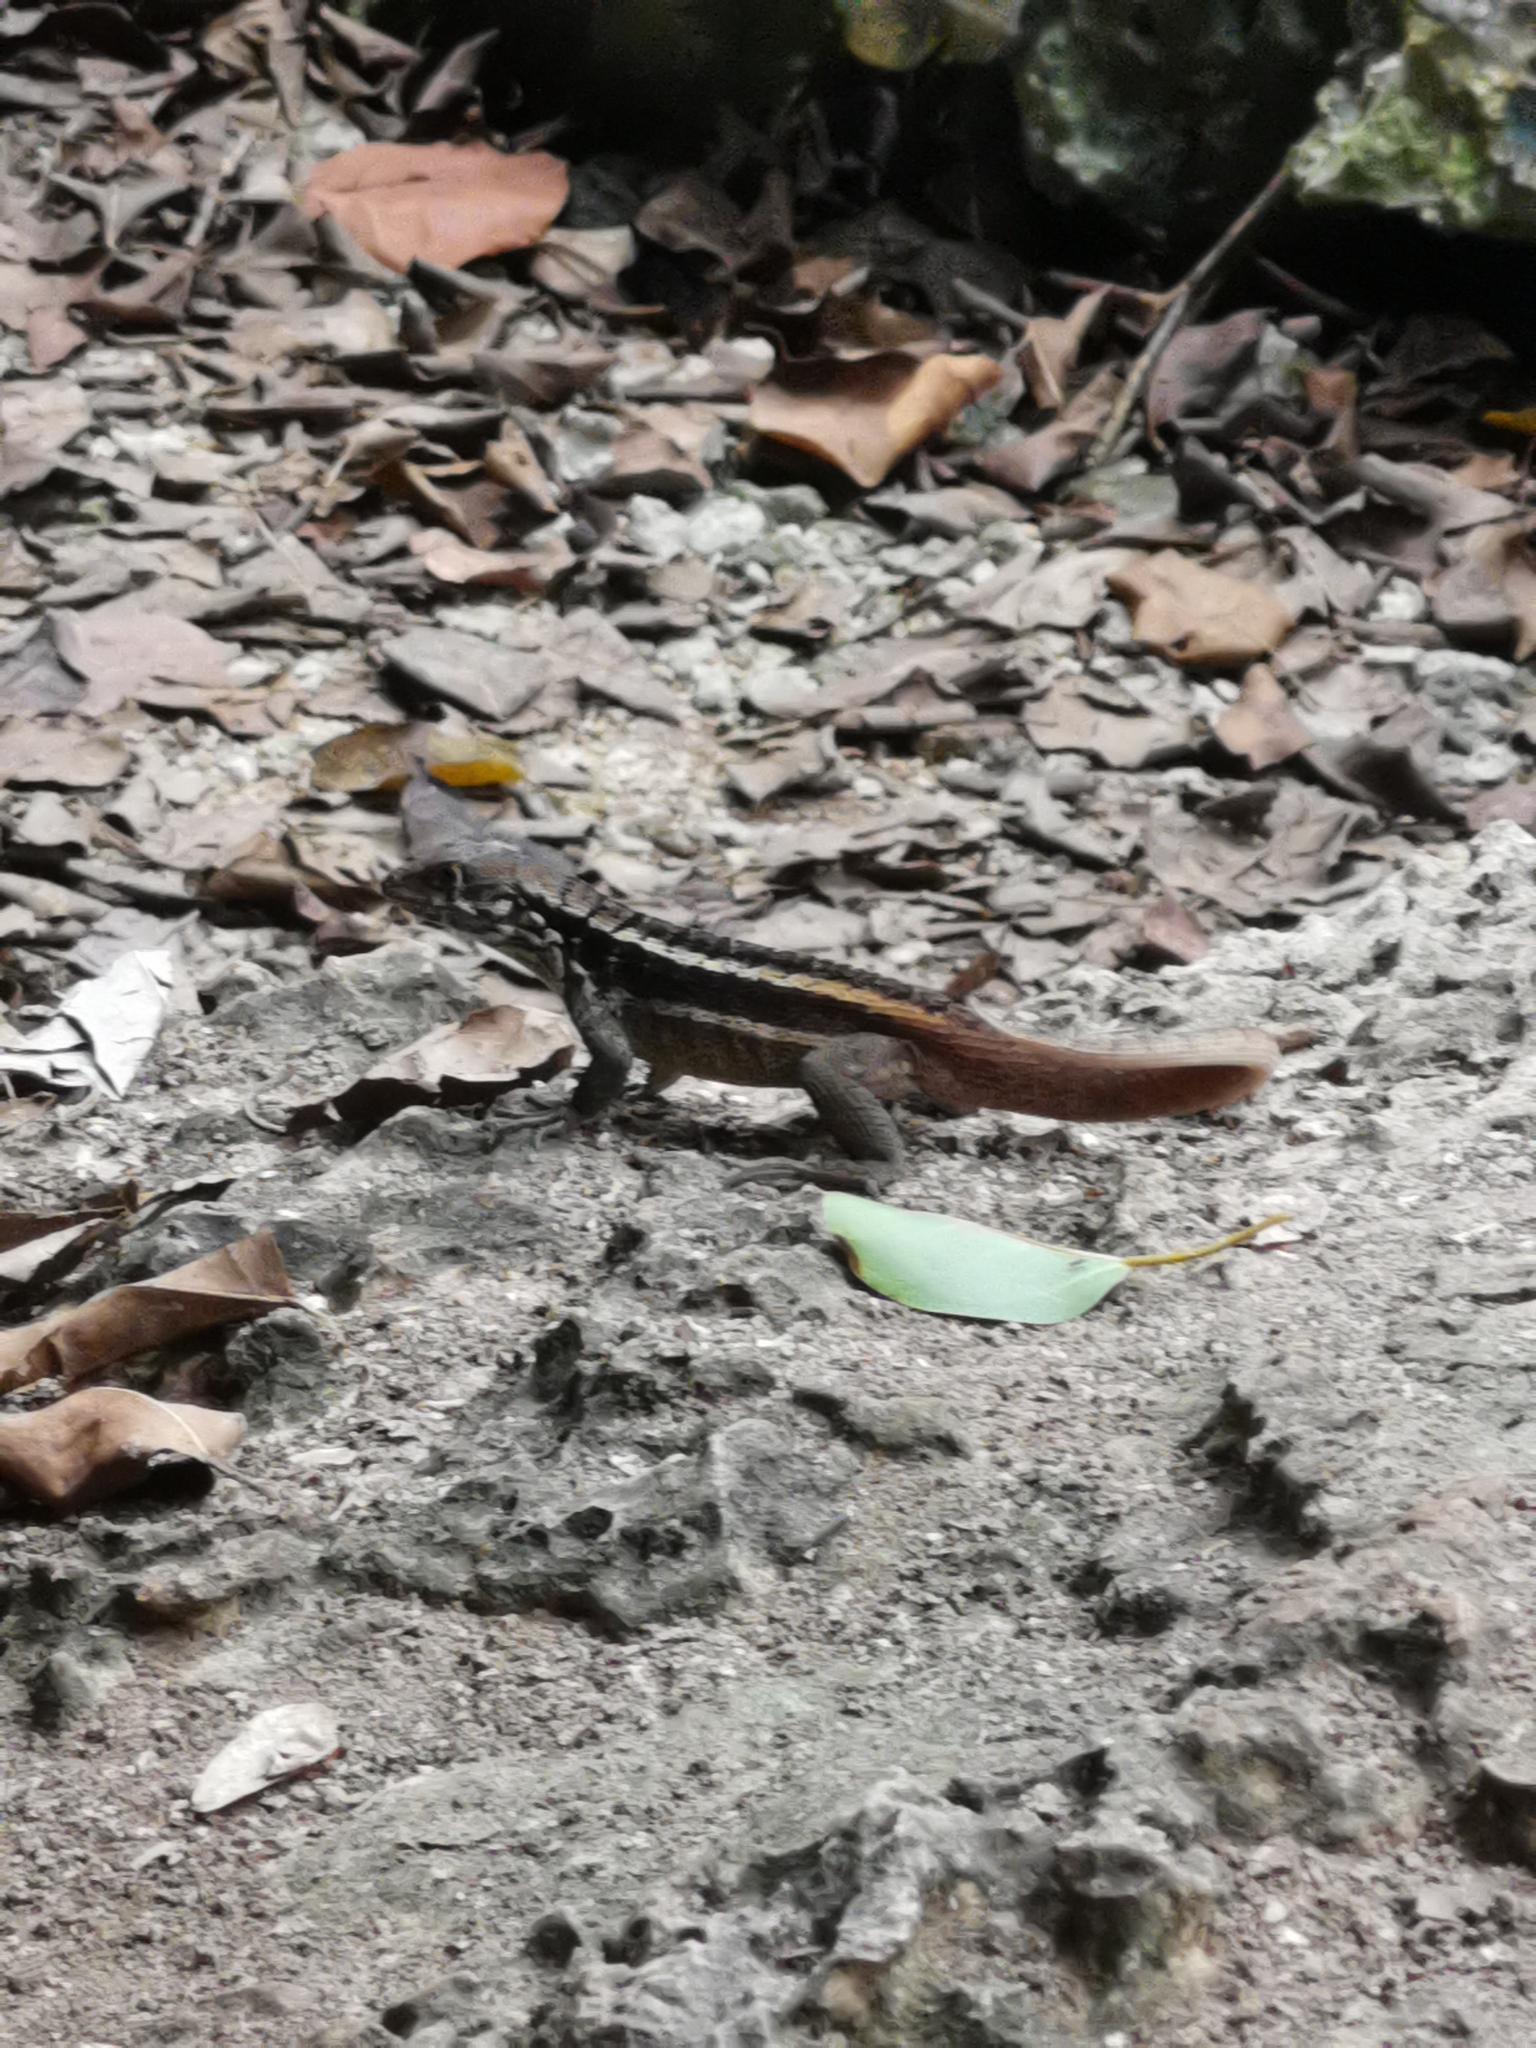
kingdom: Animalia
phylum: Chordata
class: Squamata
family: Leiocephalidae
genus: Leiocephalus
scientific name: Leiocephalus psammodromus
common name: Bastion cay curlytail lizard
